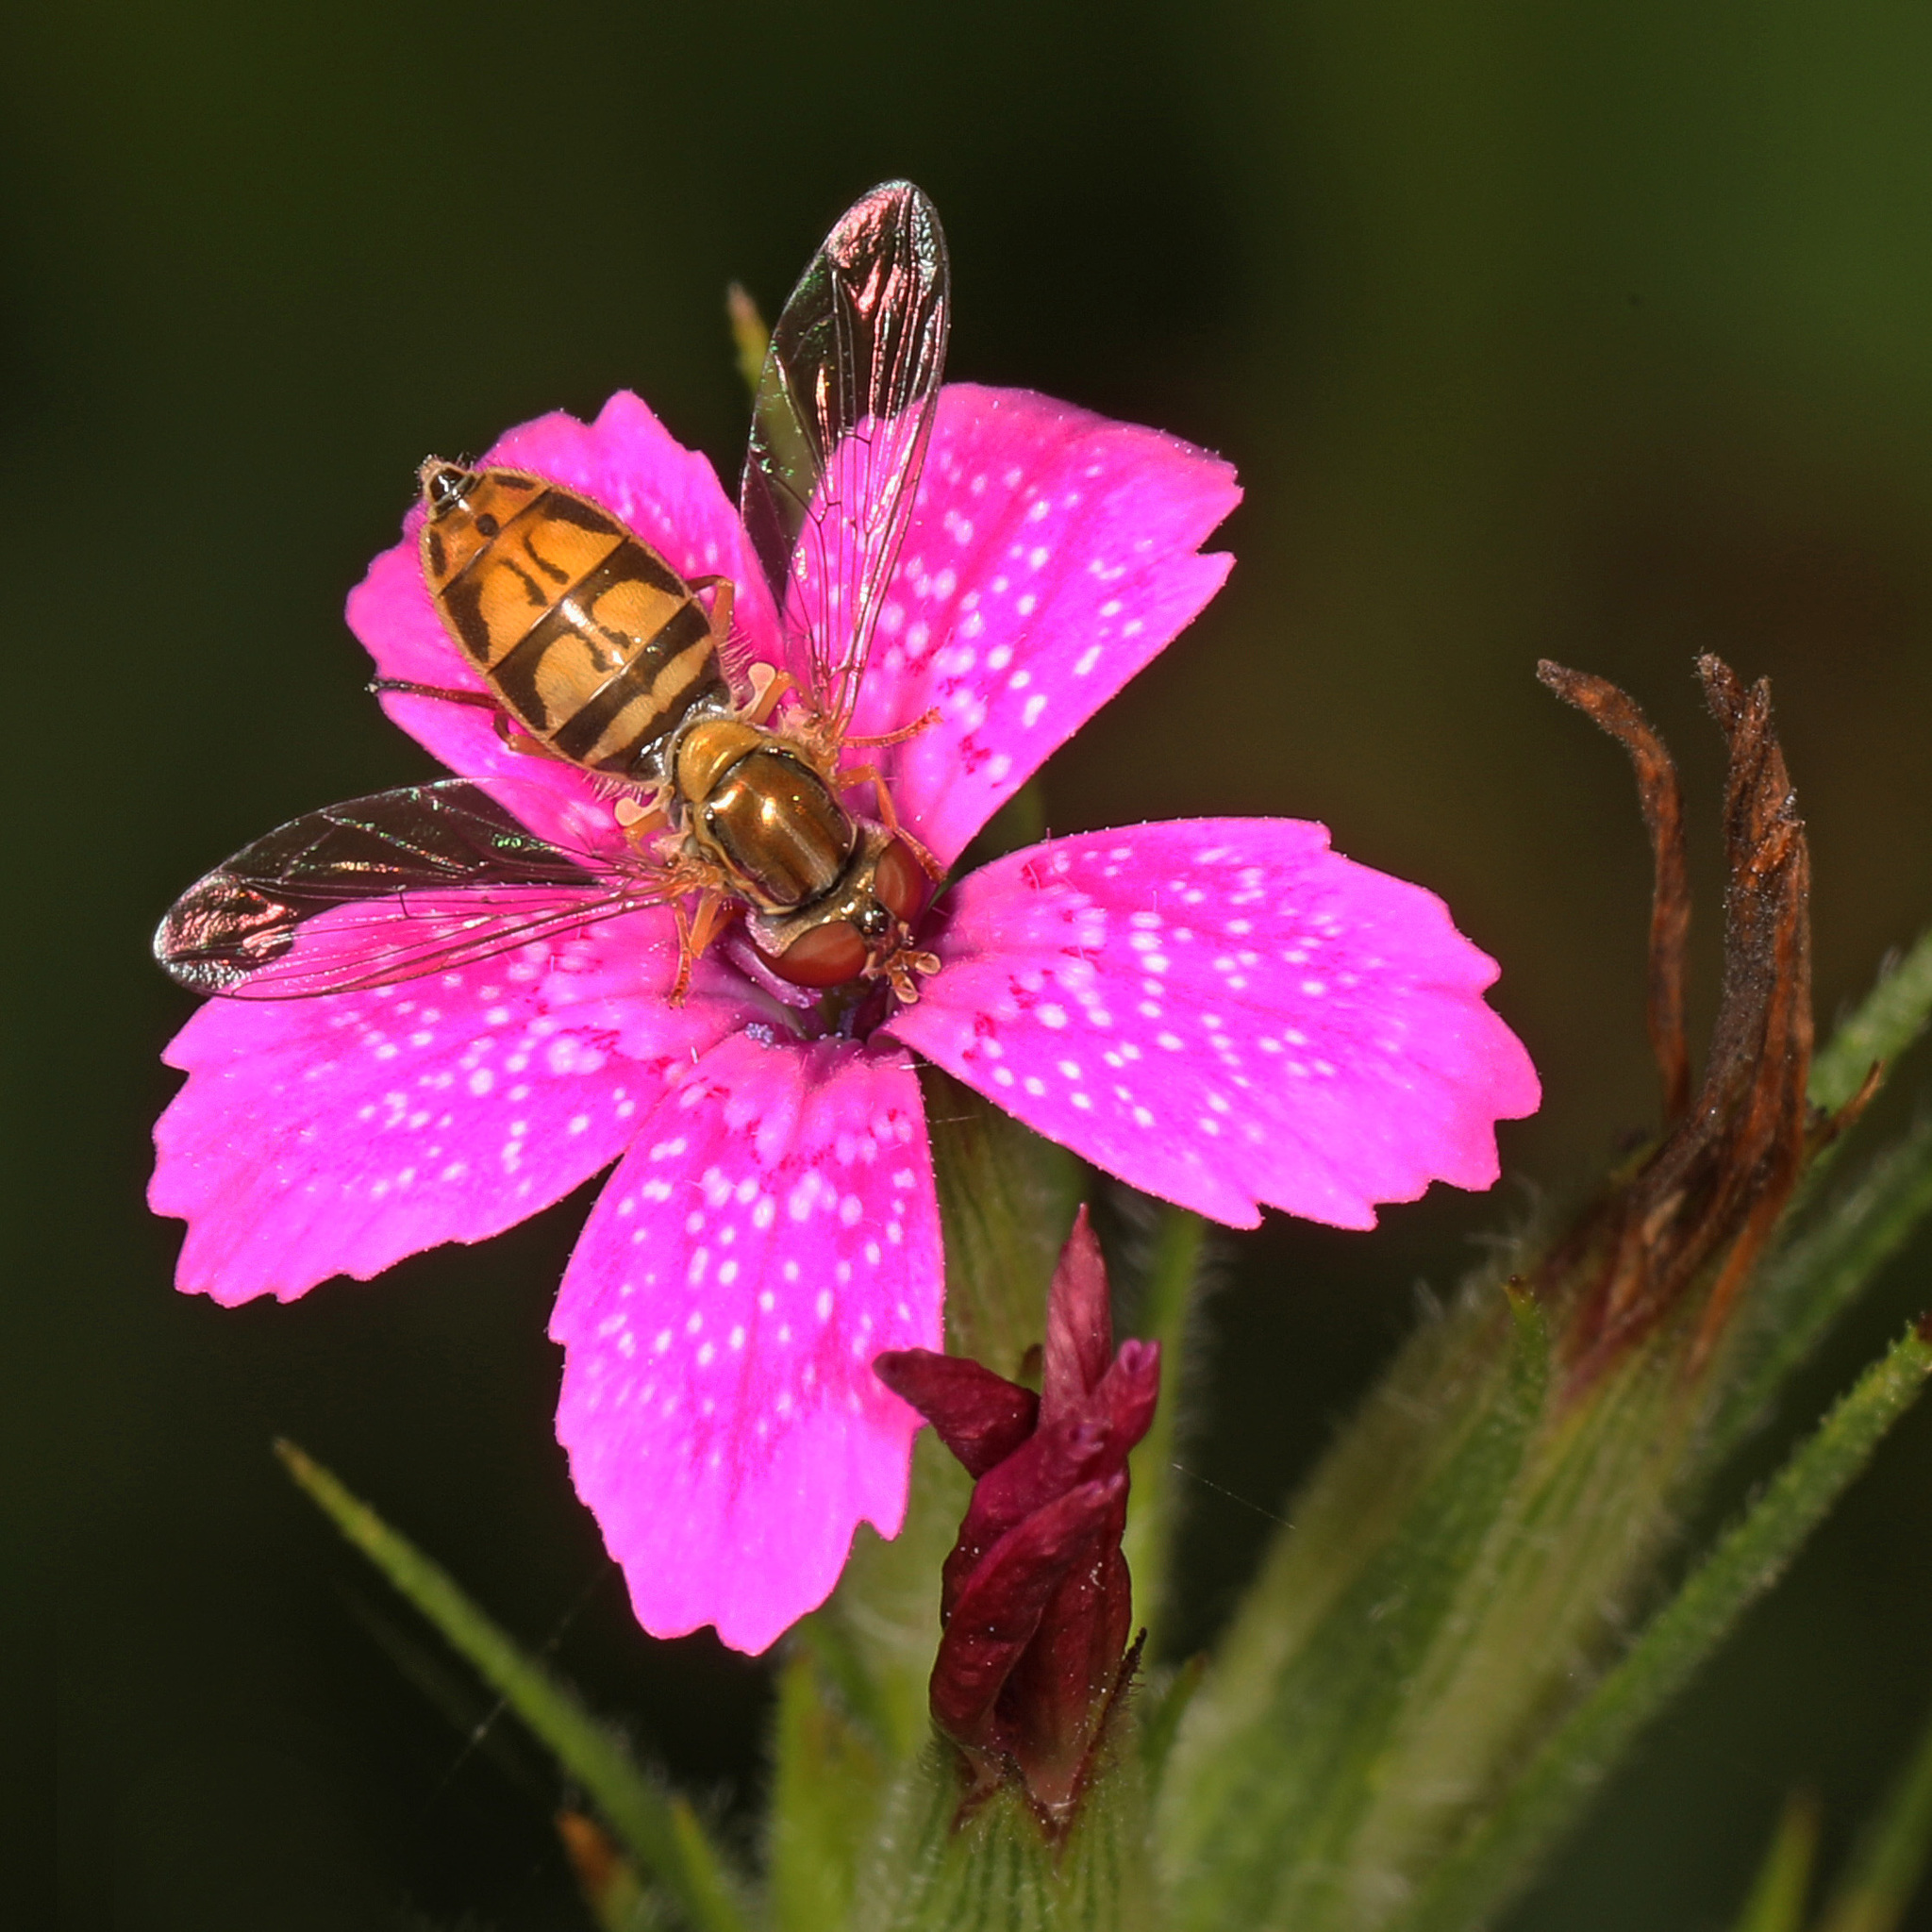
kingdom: Animalia
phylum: Arthropoda
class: Insecta
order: Diptera
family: Syrphidae
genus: Toxomerus
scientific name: Toxomerus marginatus
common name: Syrphid fly
